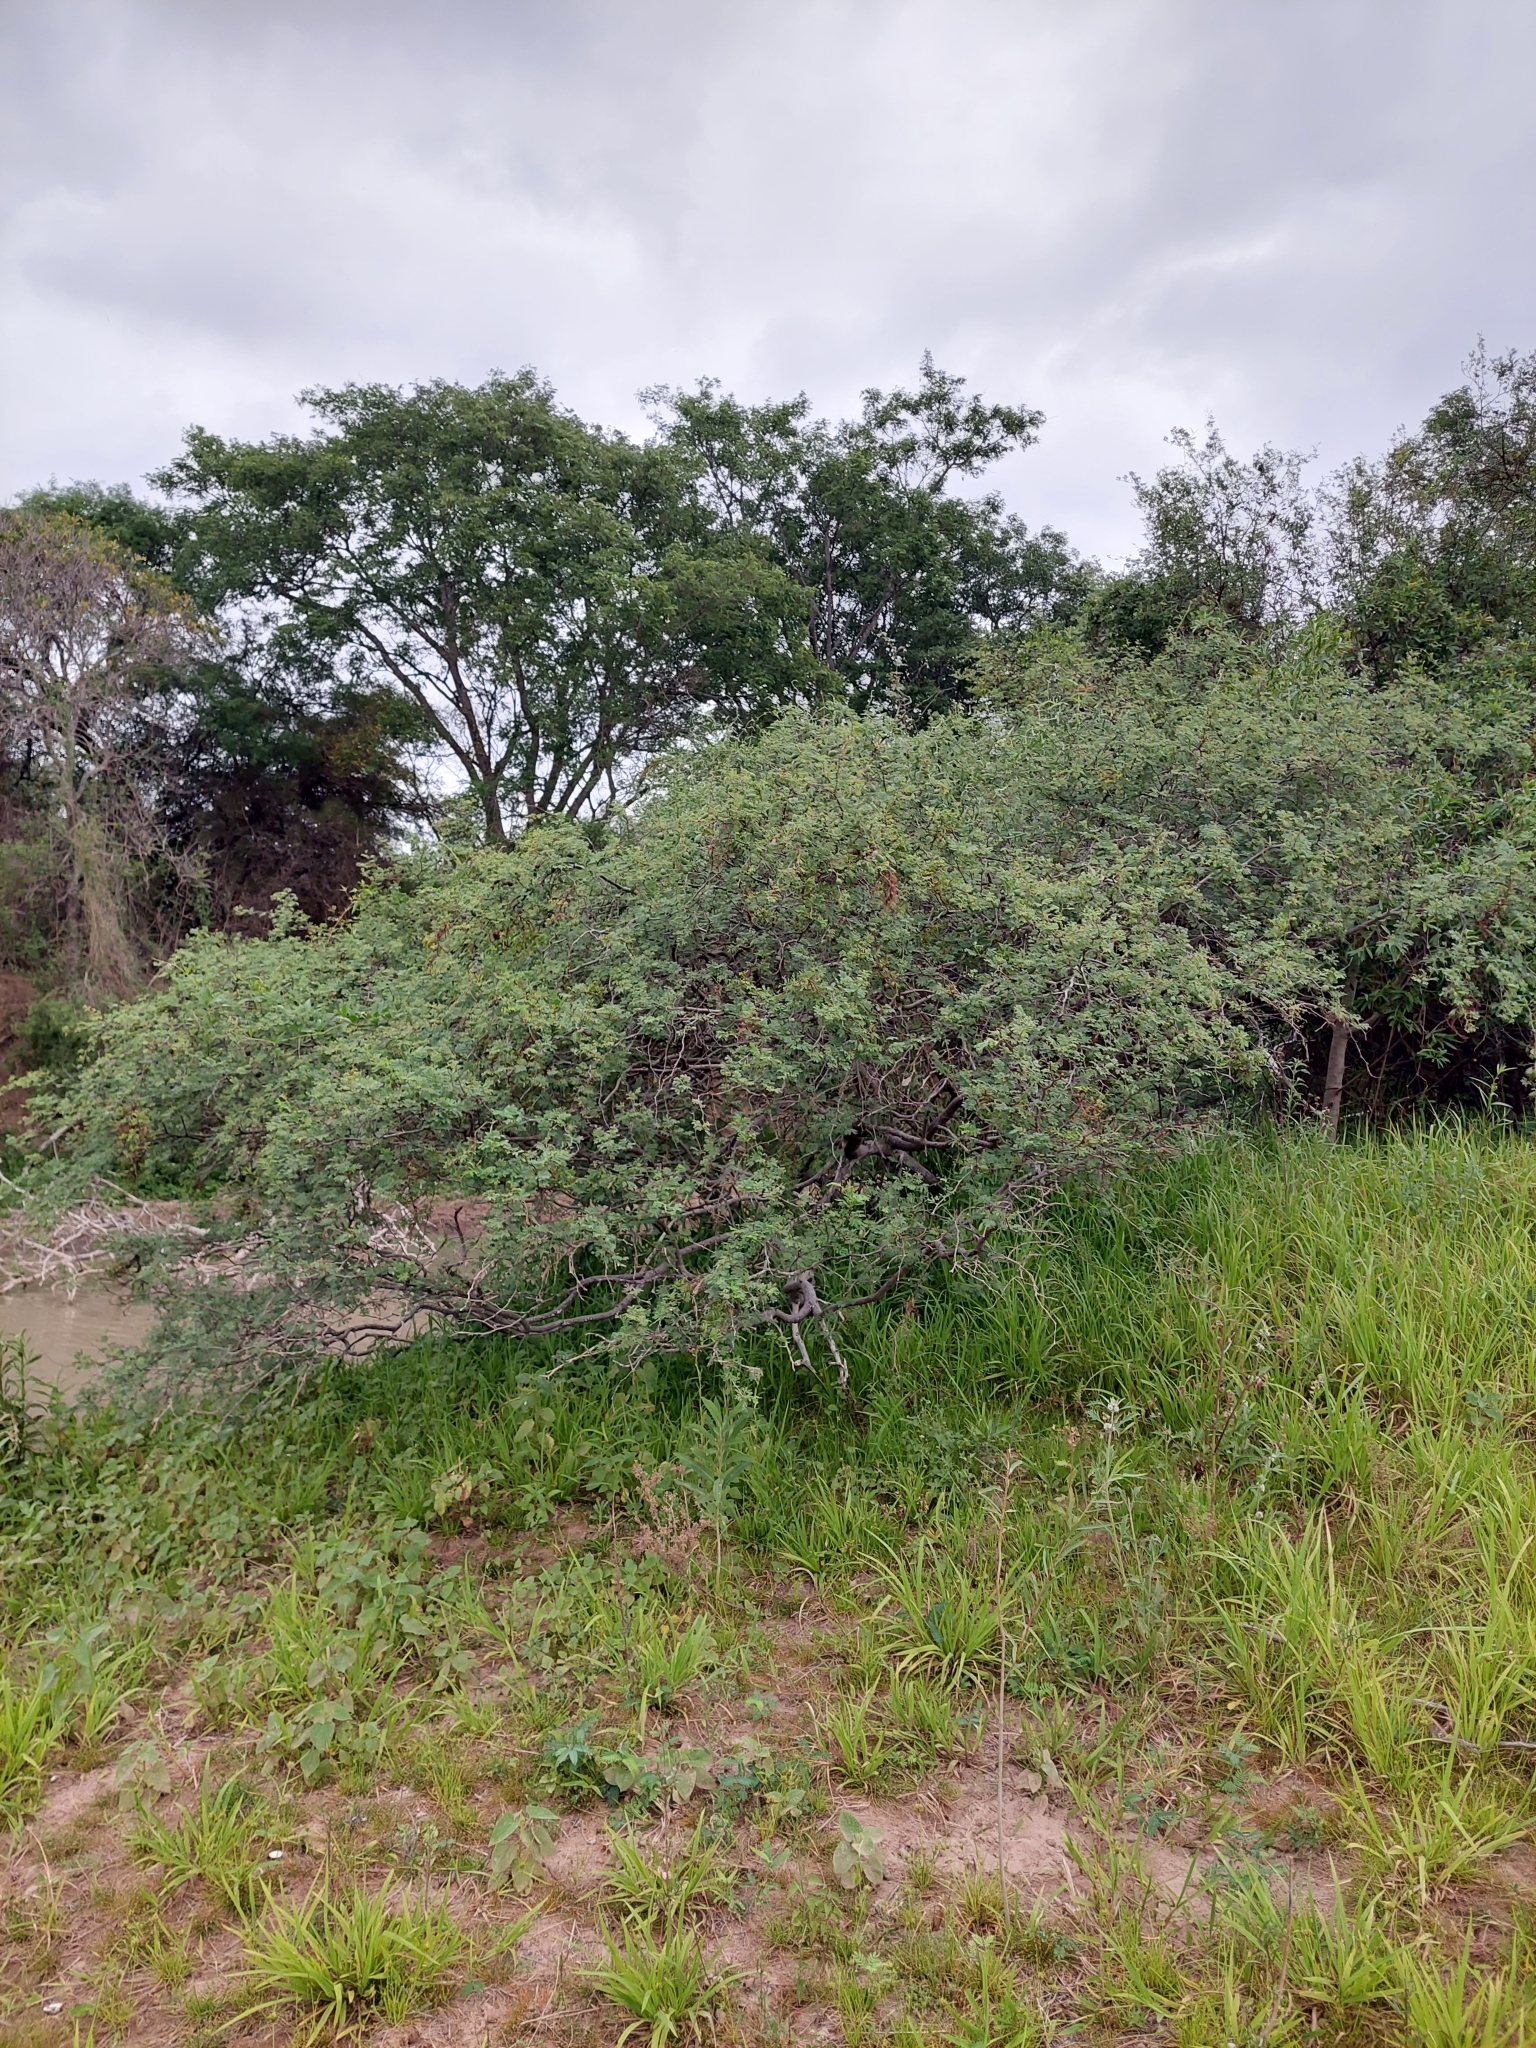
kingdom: Plantae
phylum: Tracheophyta
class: Magnoliopsida
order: Fabales
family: Fabaceae
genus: Vachellia
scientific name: Vachellia caven
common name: Roman cassie
